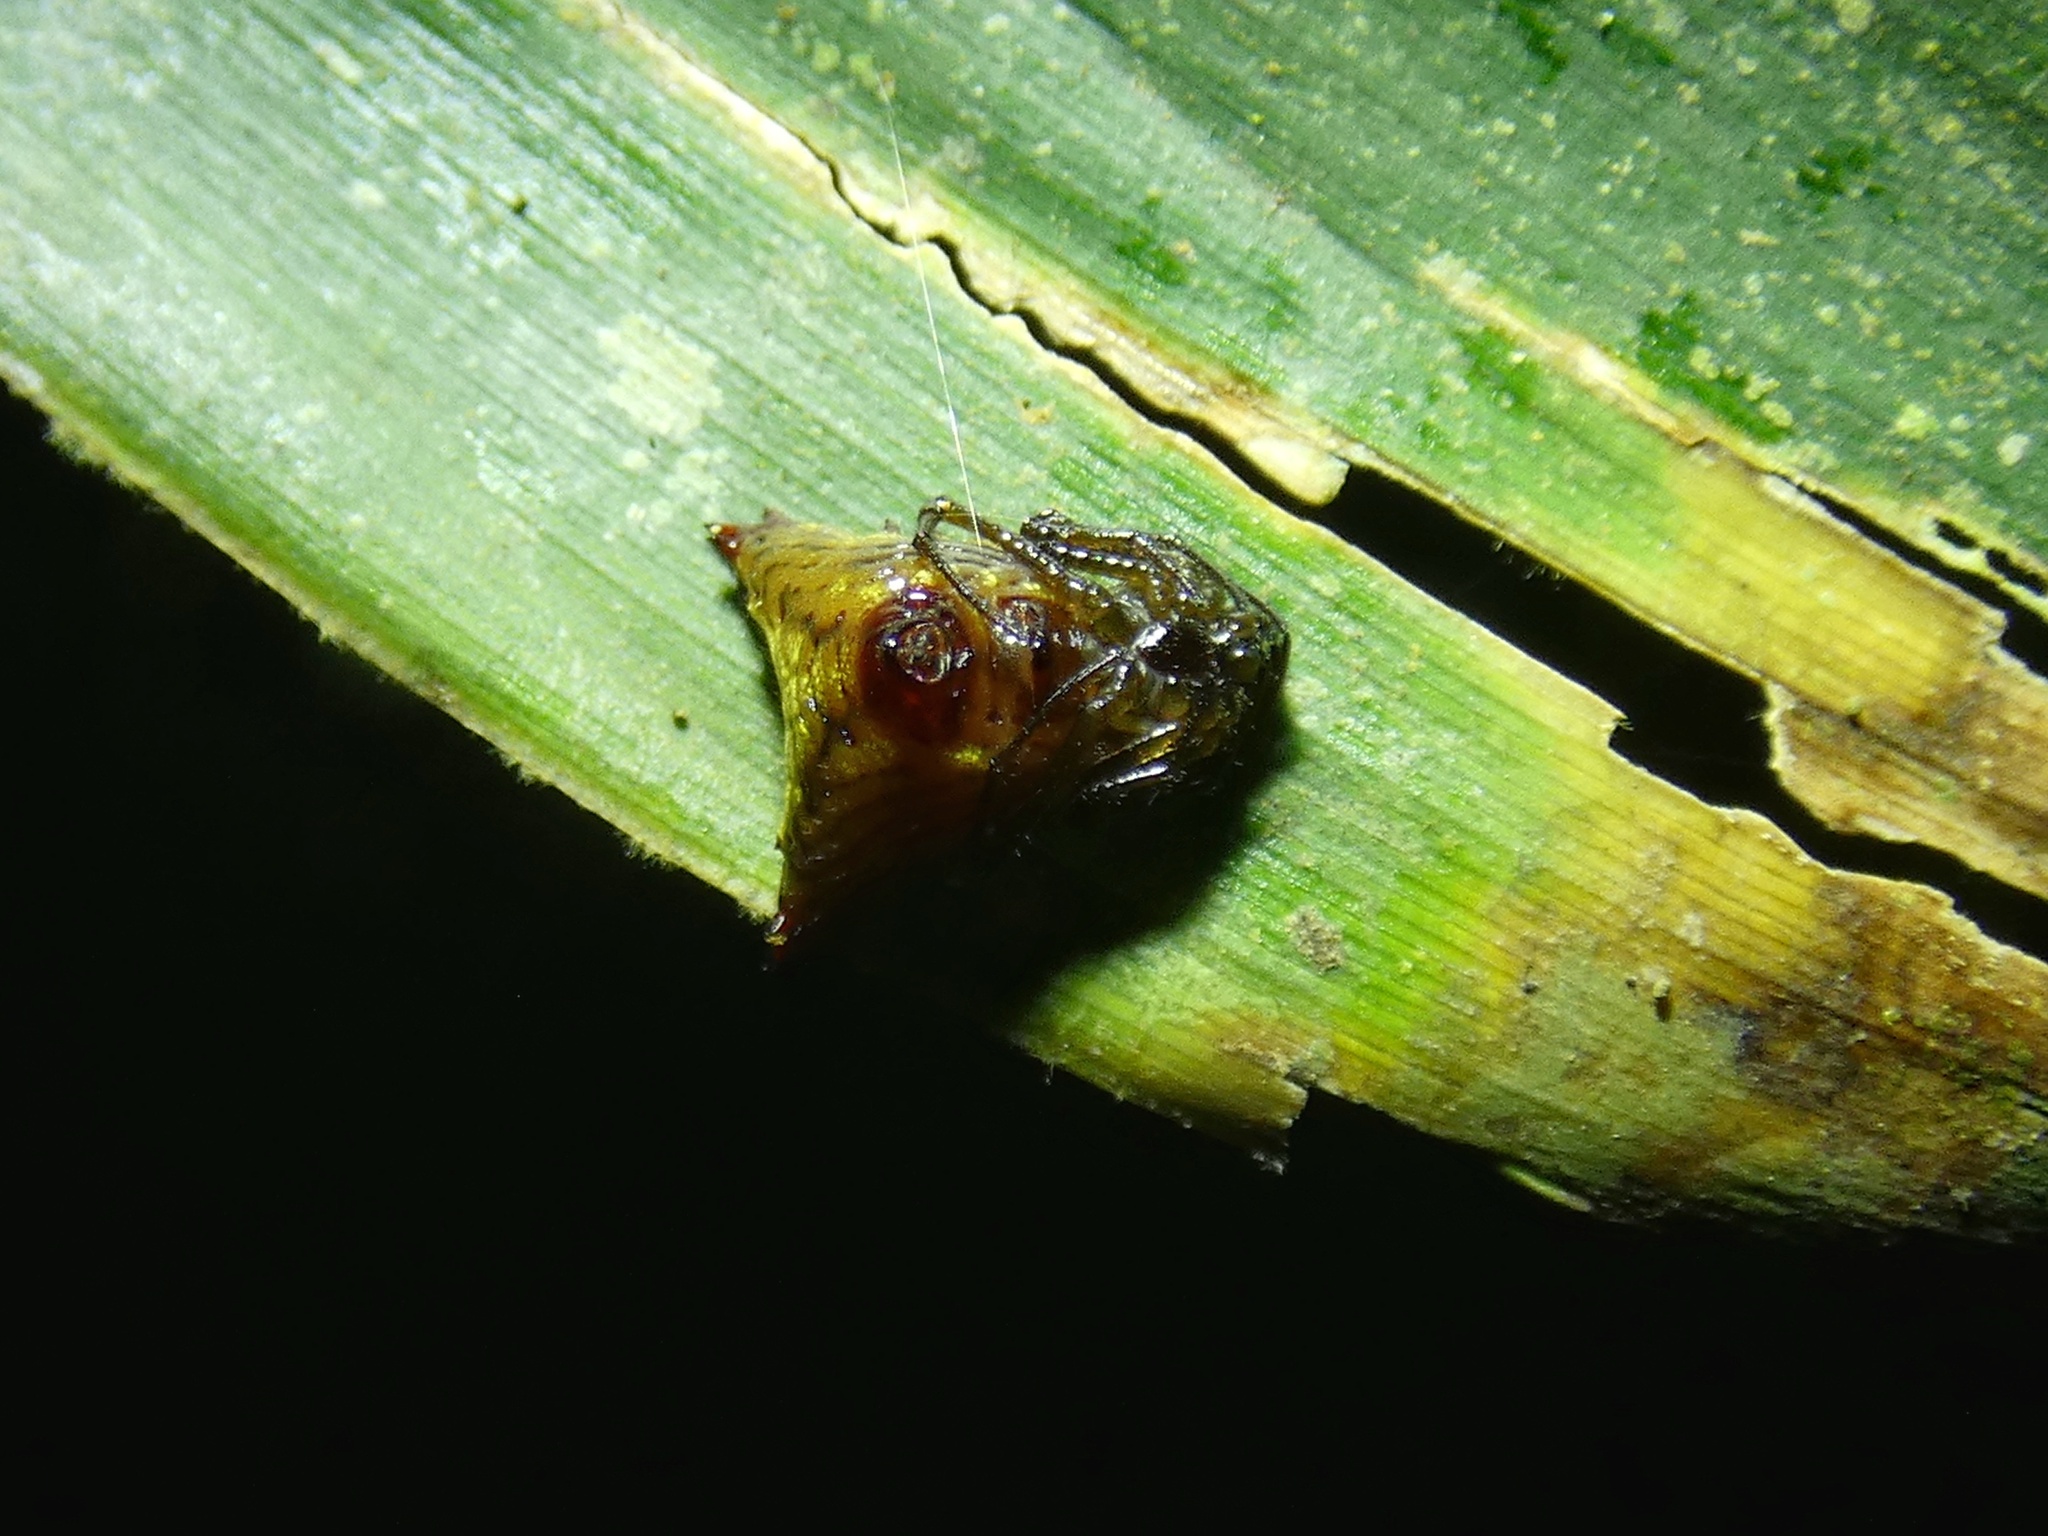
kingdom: Animalia
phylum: Arthropoda
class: Arachnida
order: Araneae
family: Araneidae
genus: Micrathena
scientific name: Micrathena triangularis
